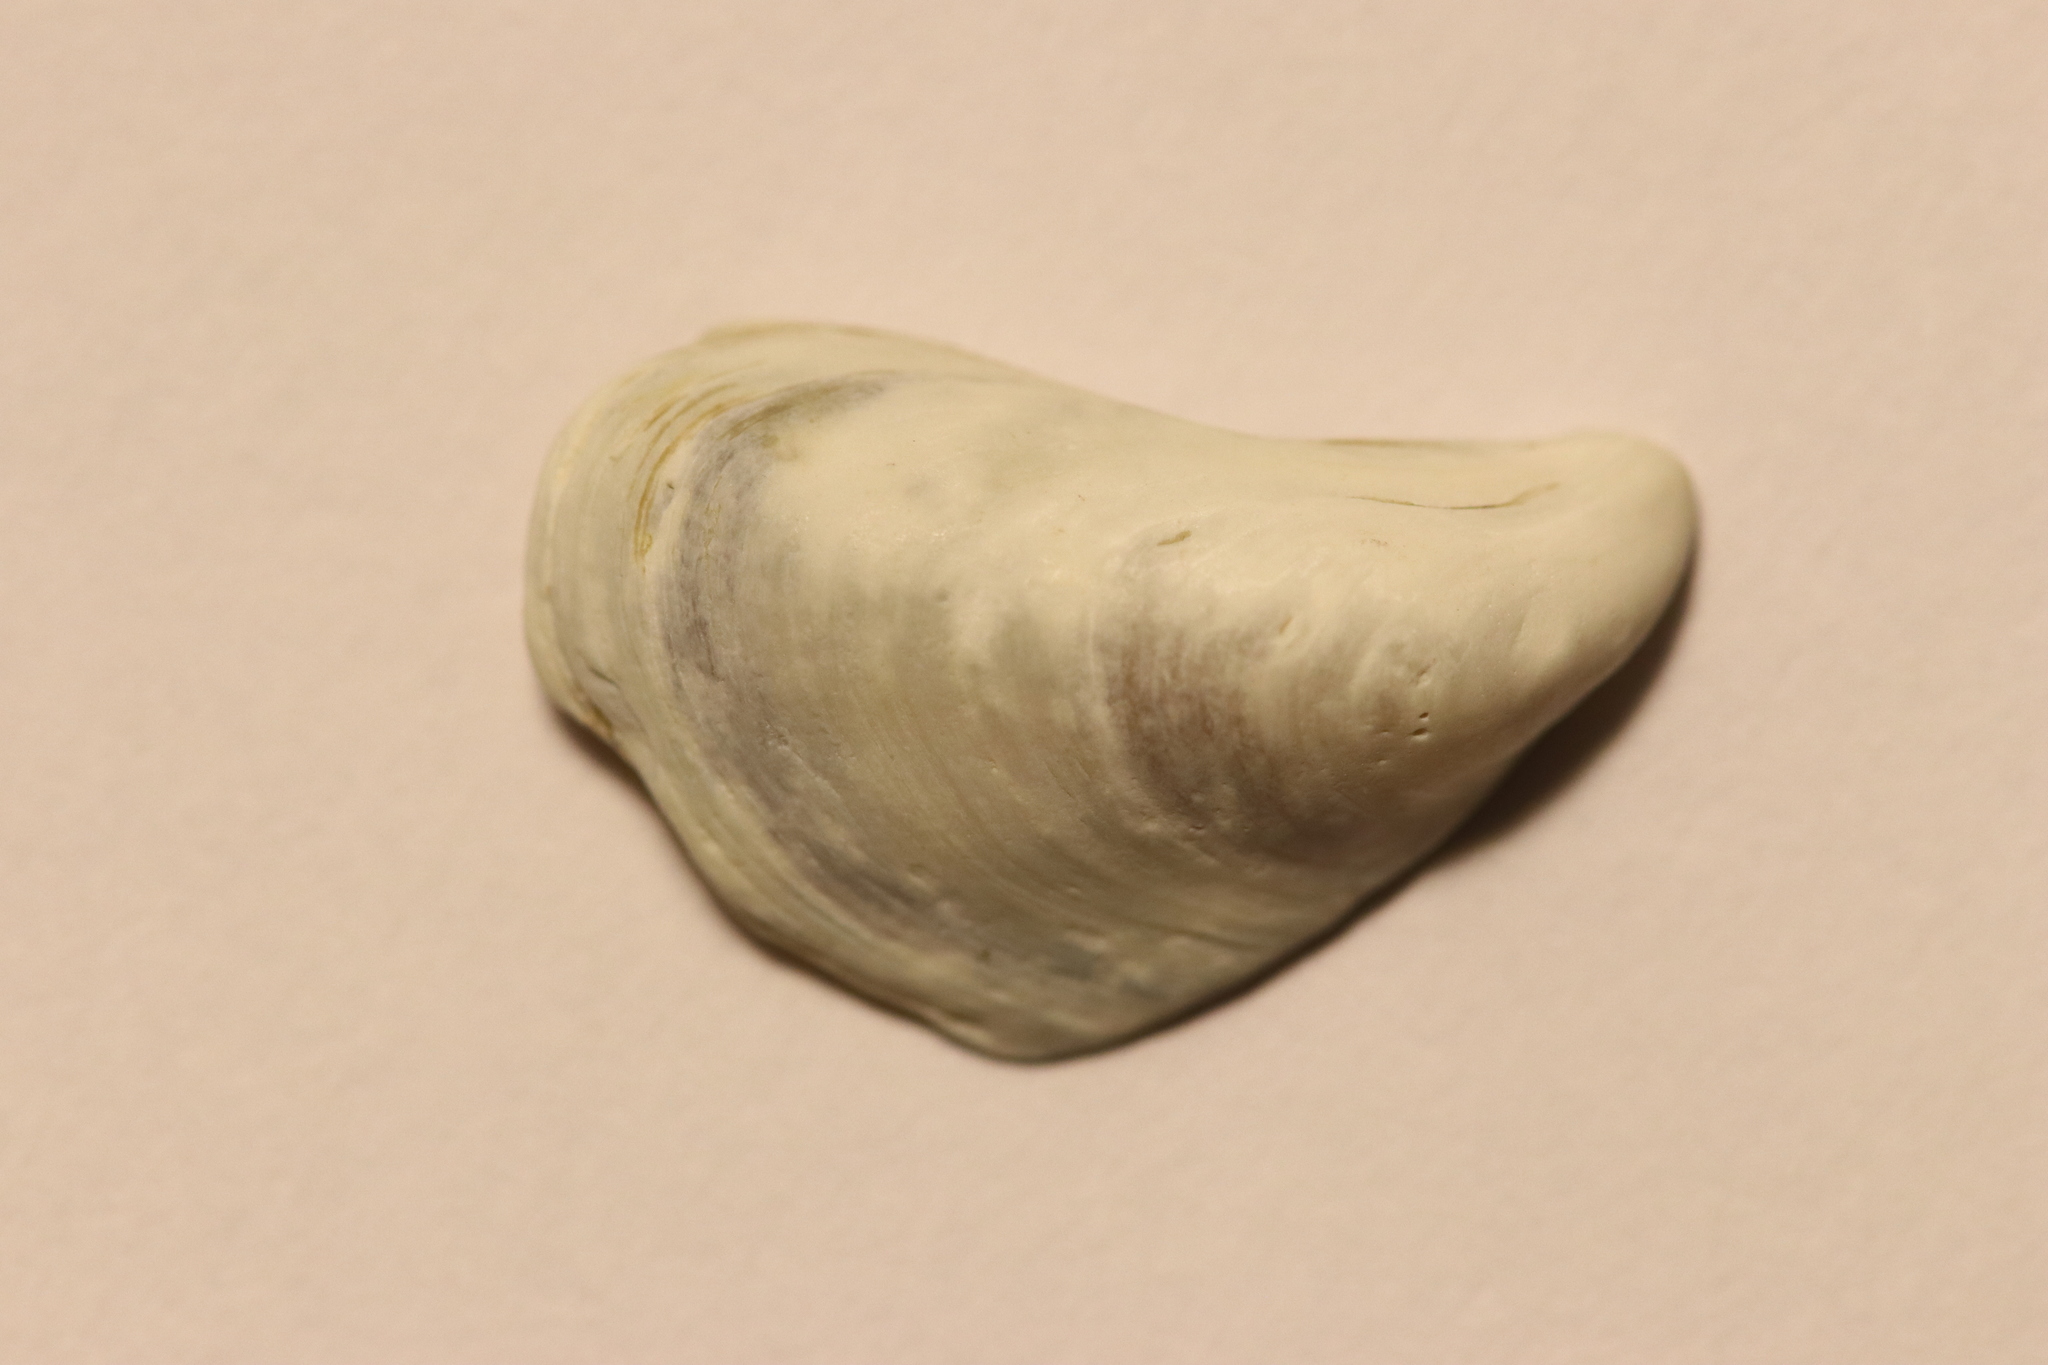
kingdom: Animalia
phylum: Mollusca
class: Bivalvia
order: Myida
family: Dreissenidae
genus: Dreissena
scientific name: Dreissena bugensis
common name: Quagga mussel
